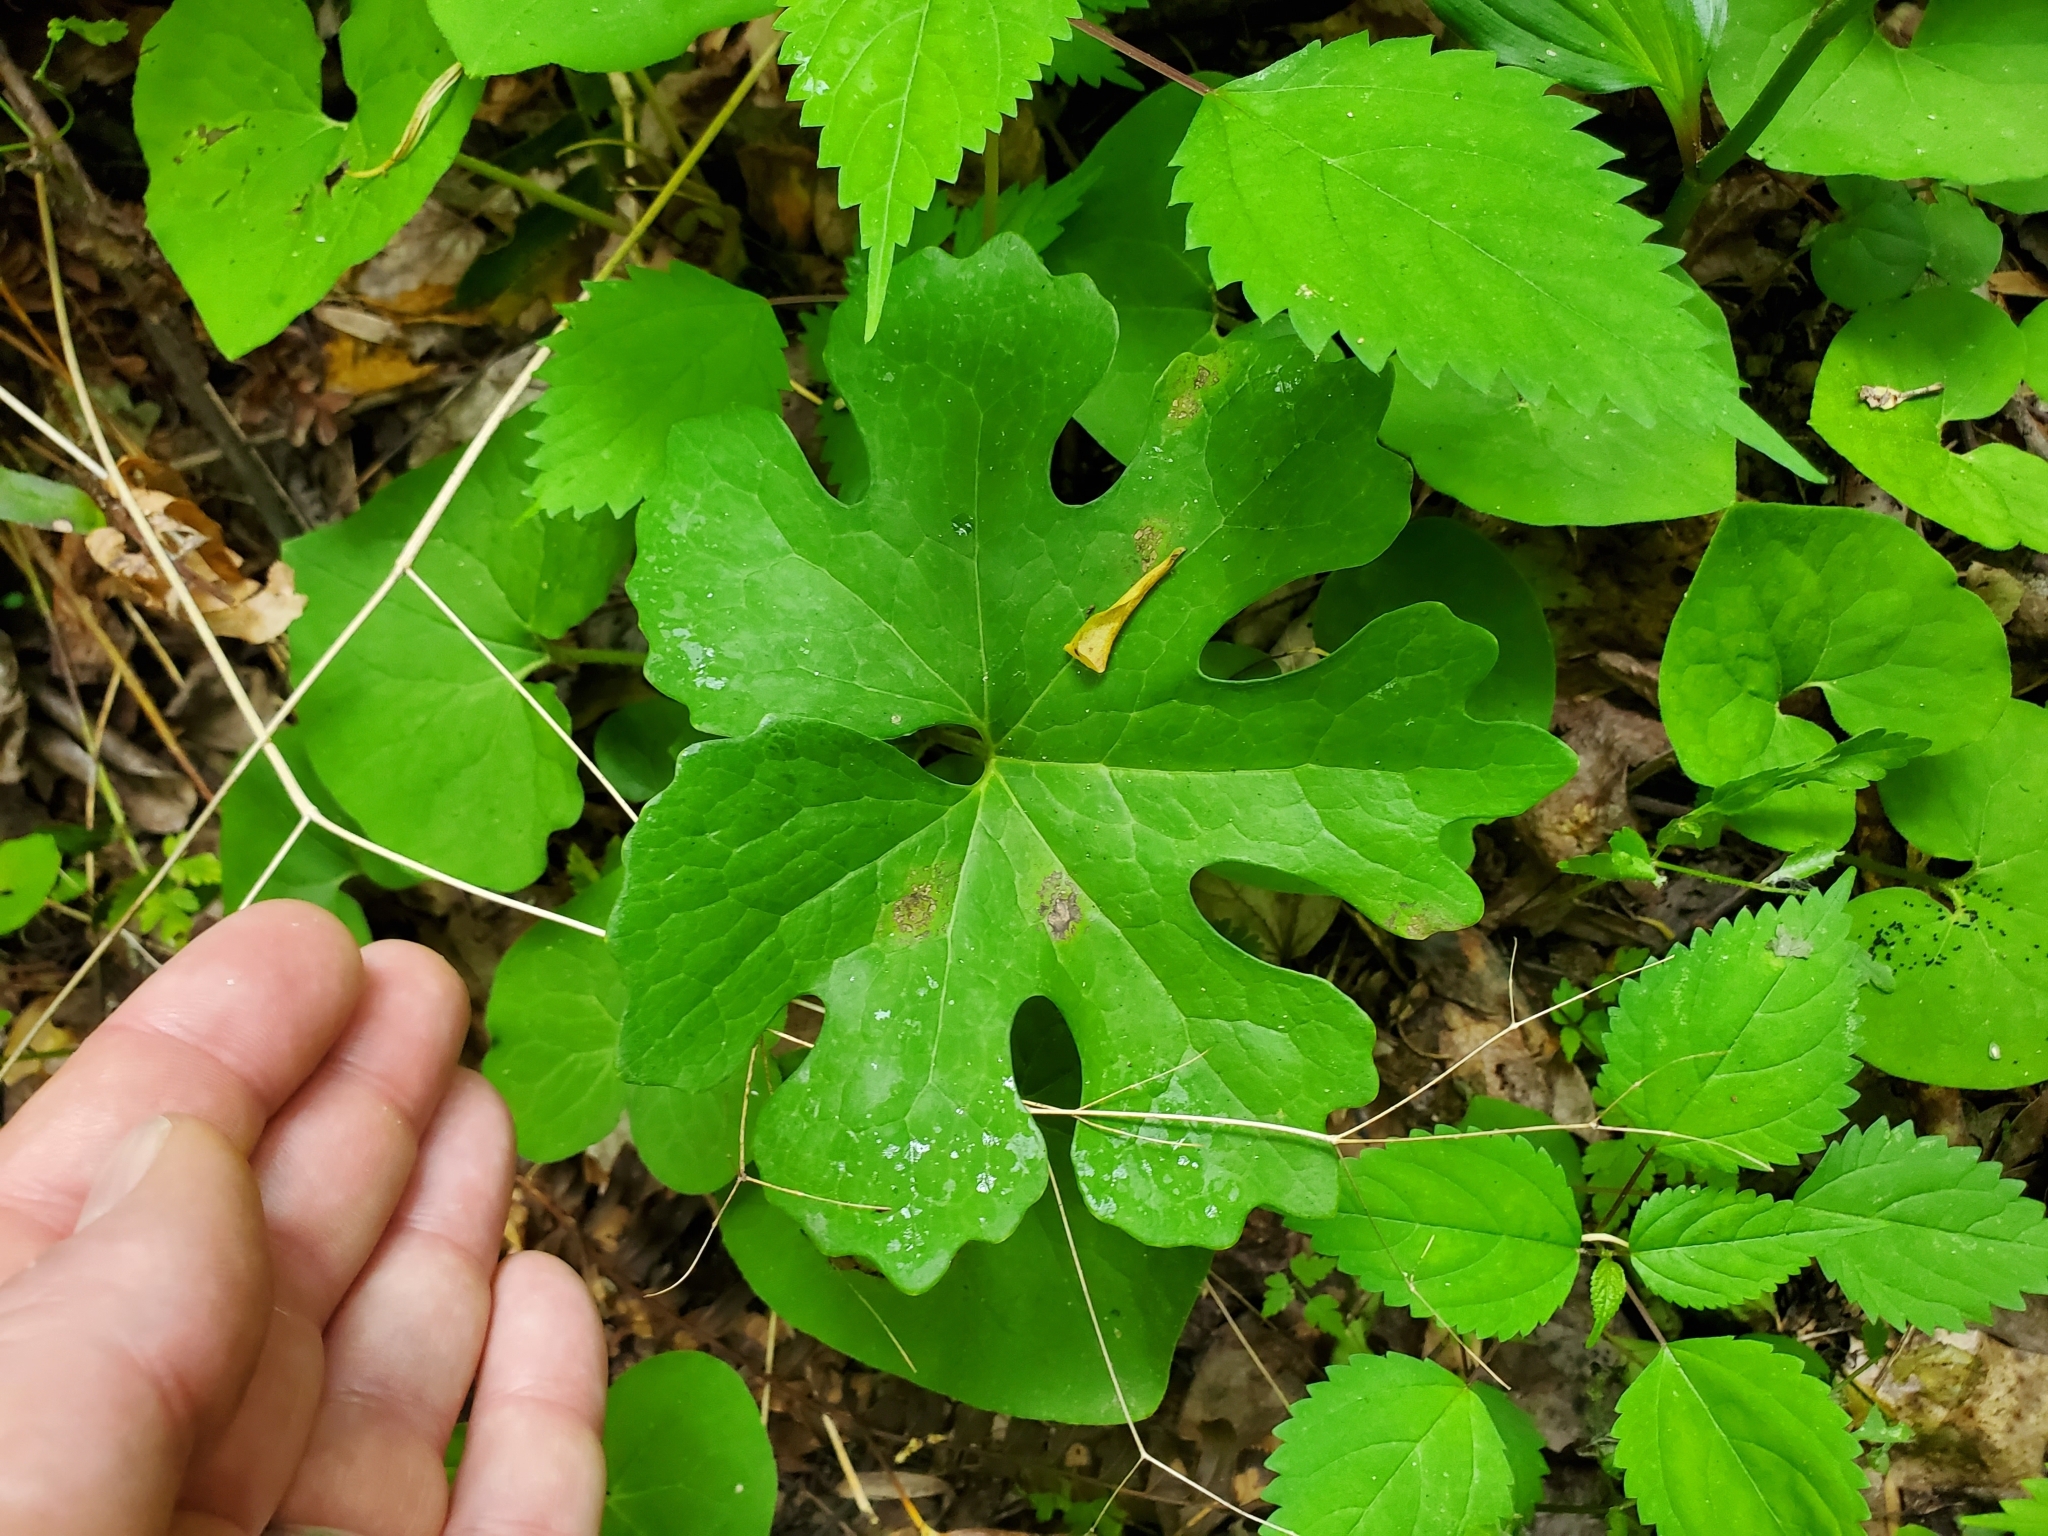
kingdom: Plantae
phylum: Tracheophyta
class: Magnoliopsida
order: Ranunculales
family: Papaveraceae
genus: Sanguinaria
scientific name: Sanguinaria canadensis
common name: Bloodroot
